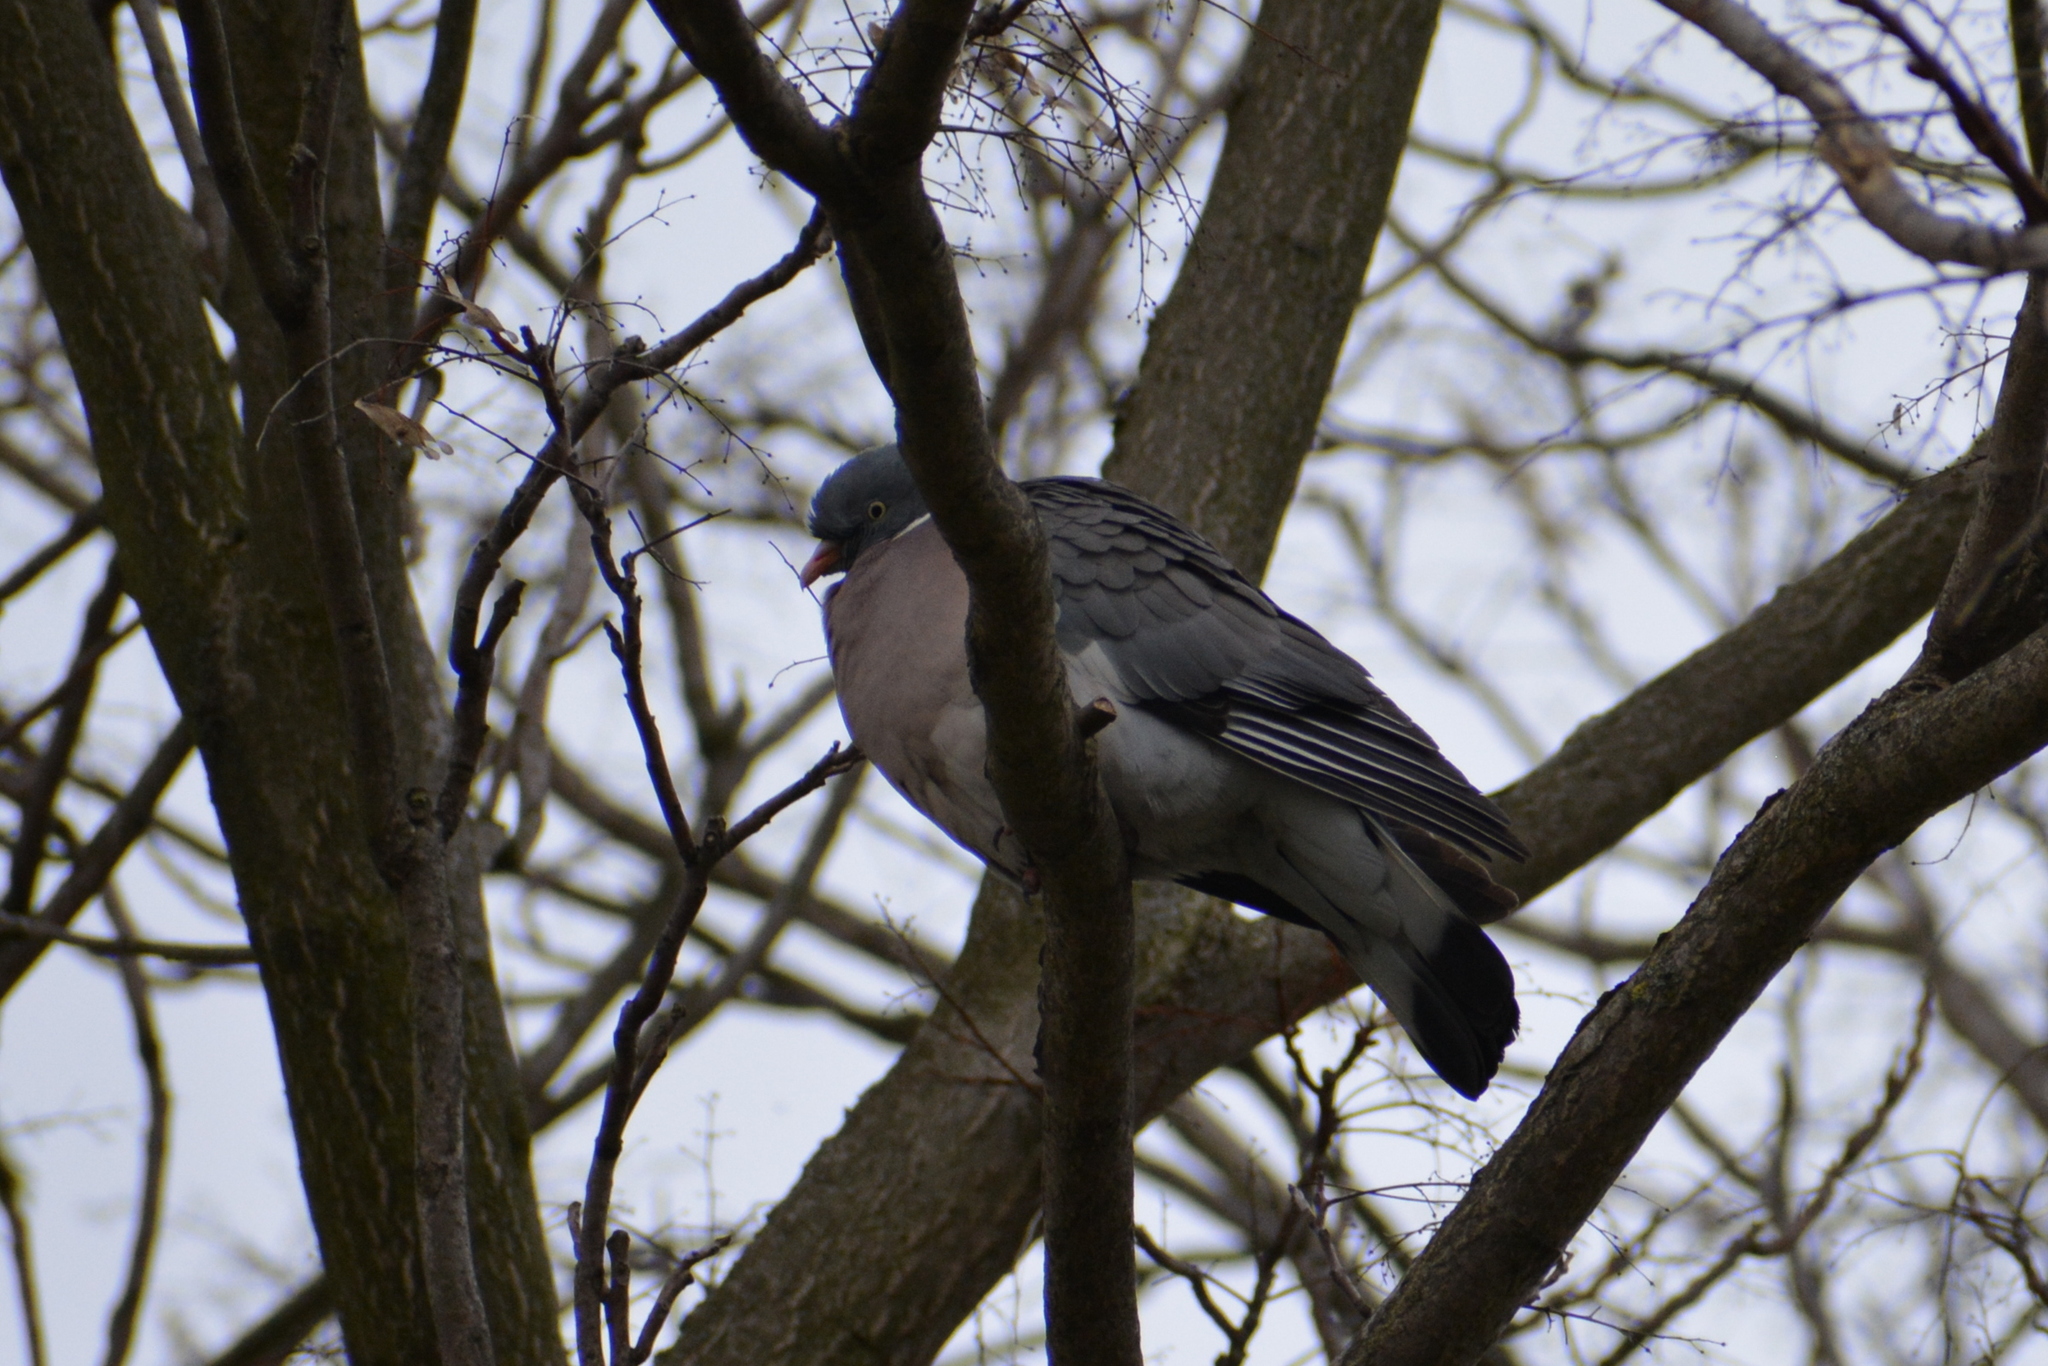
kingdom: Animalia
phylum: Chordata
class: Aves
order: Columbiformes
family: Columbidae
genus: Columba
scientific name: Columba palumbus
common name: Common wood pigeon
